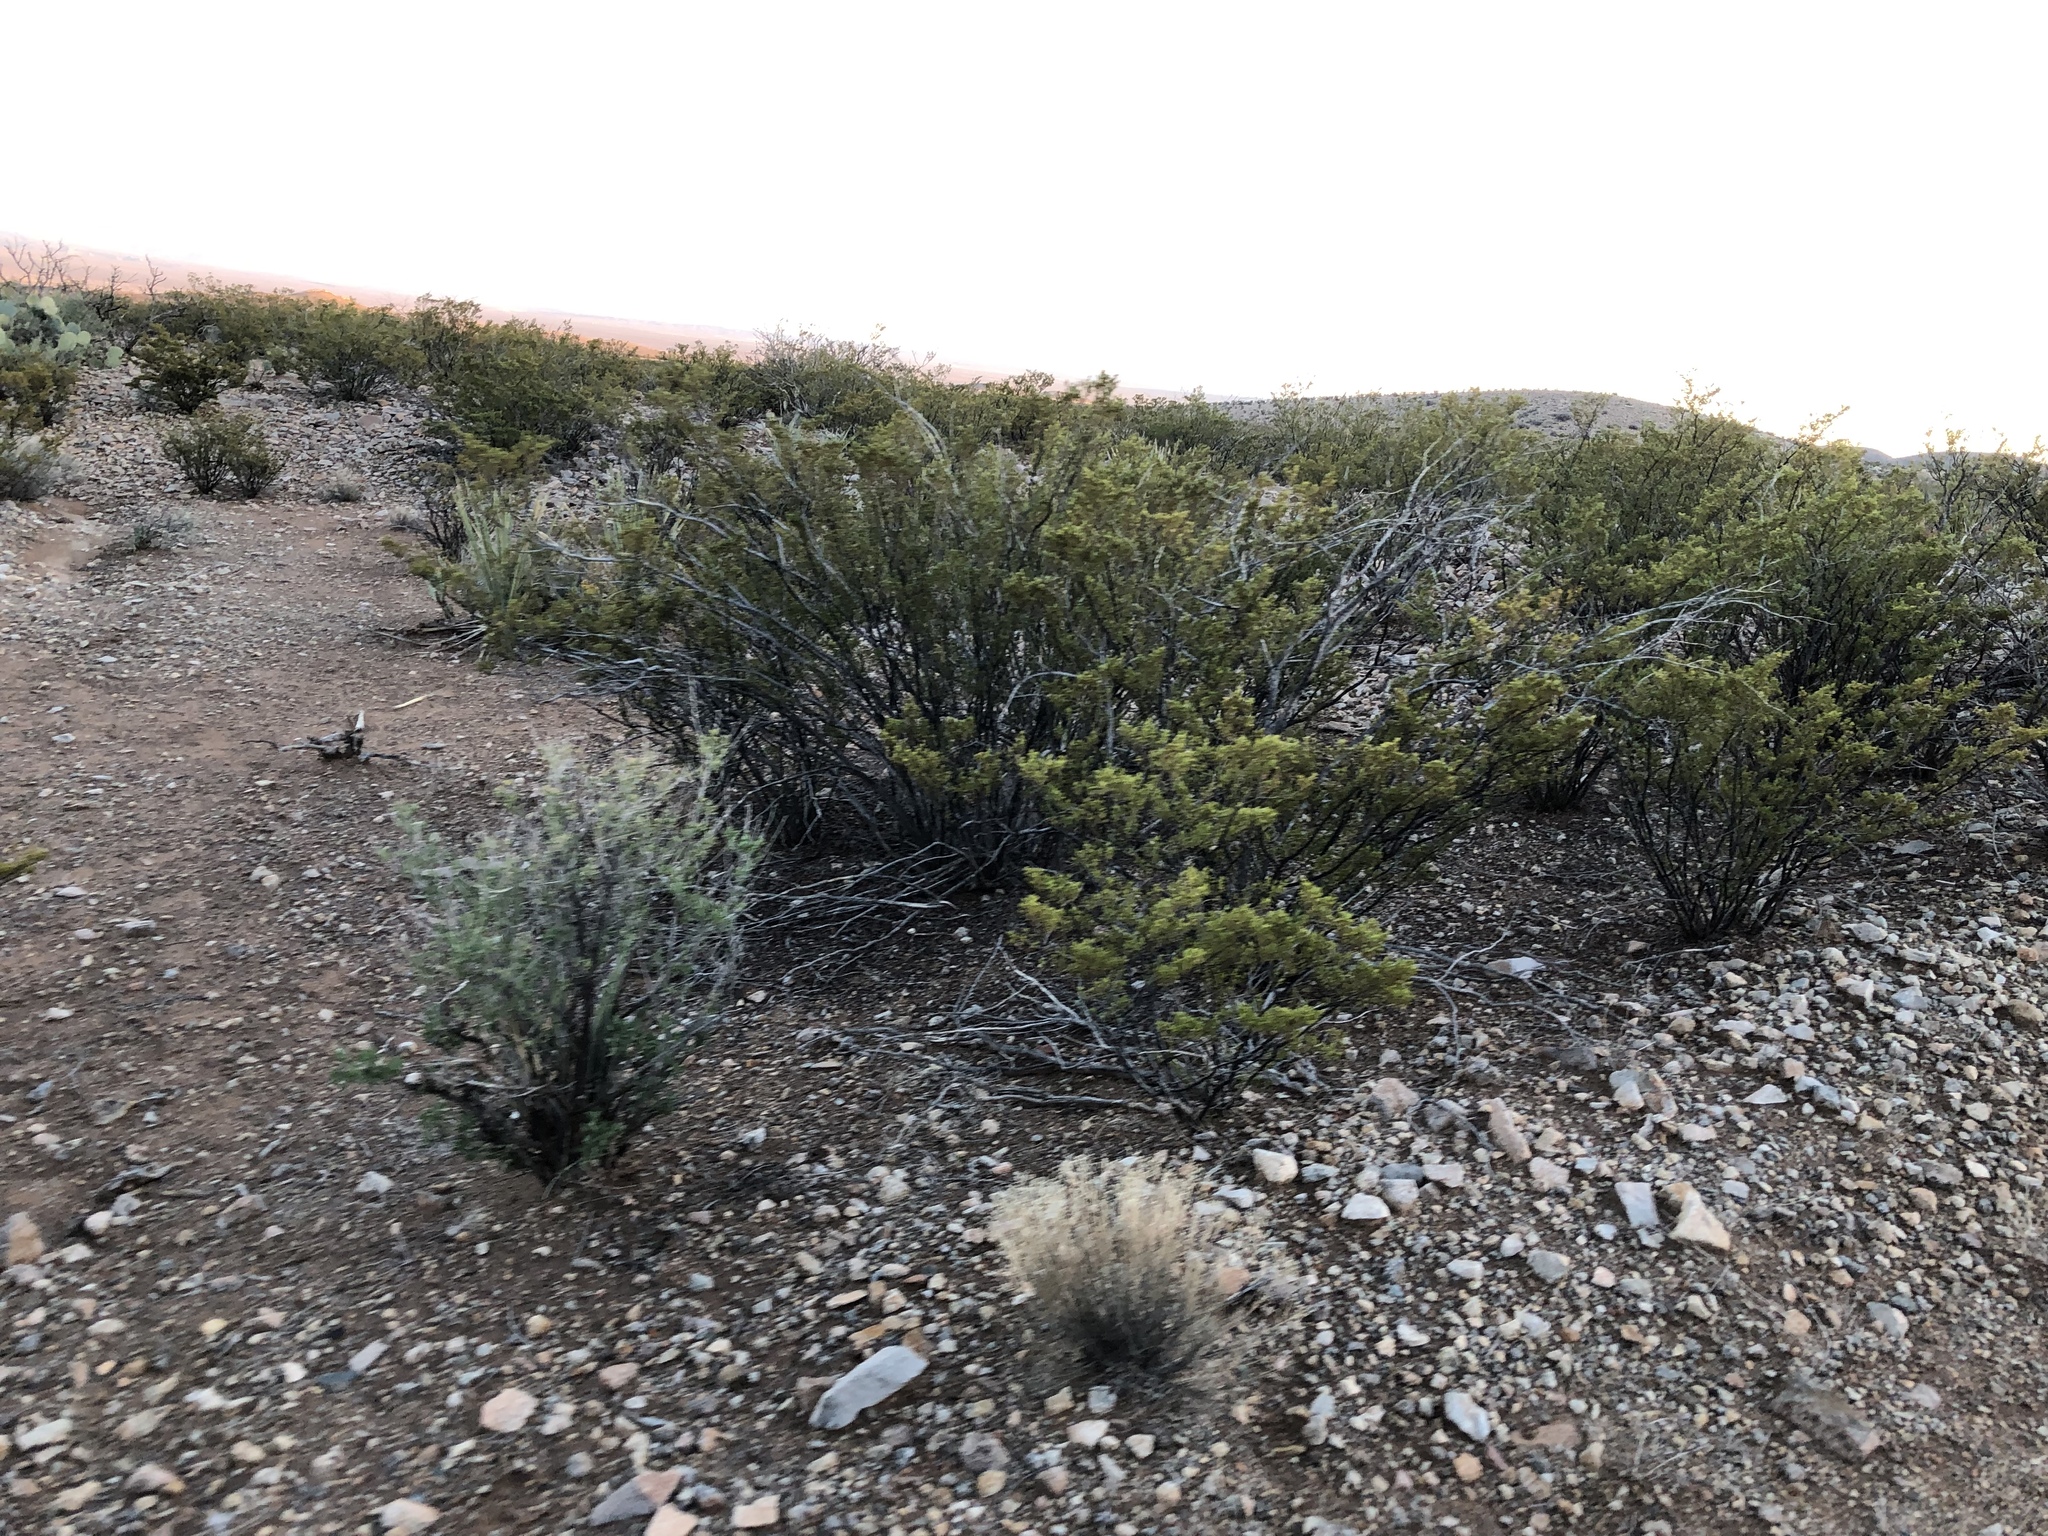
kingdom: Plantae
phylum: Tracheophyta
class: Magnoliopsida
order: Zygophyllales
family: Zygophyllaceae
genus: Larrea
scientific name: Larrea tridentata
